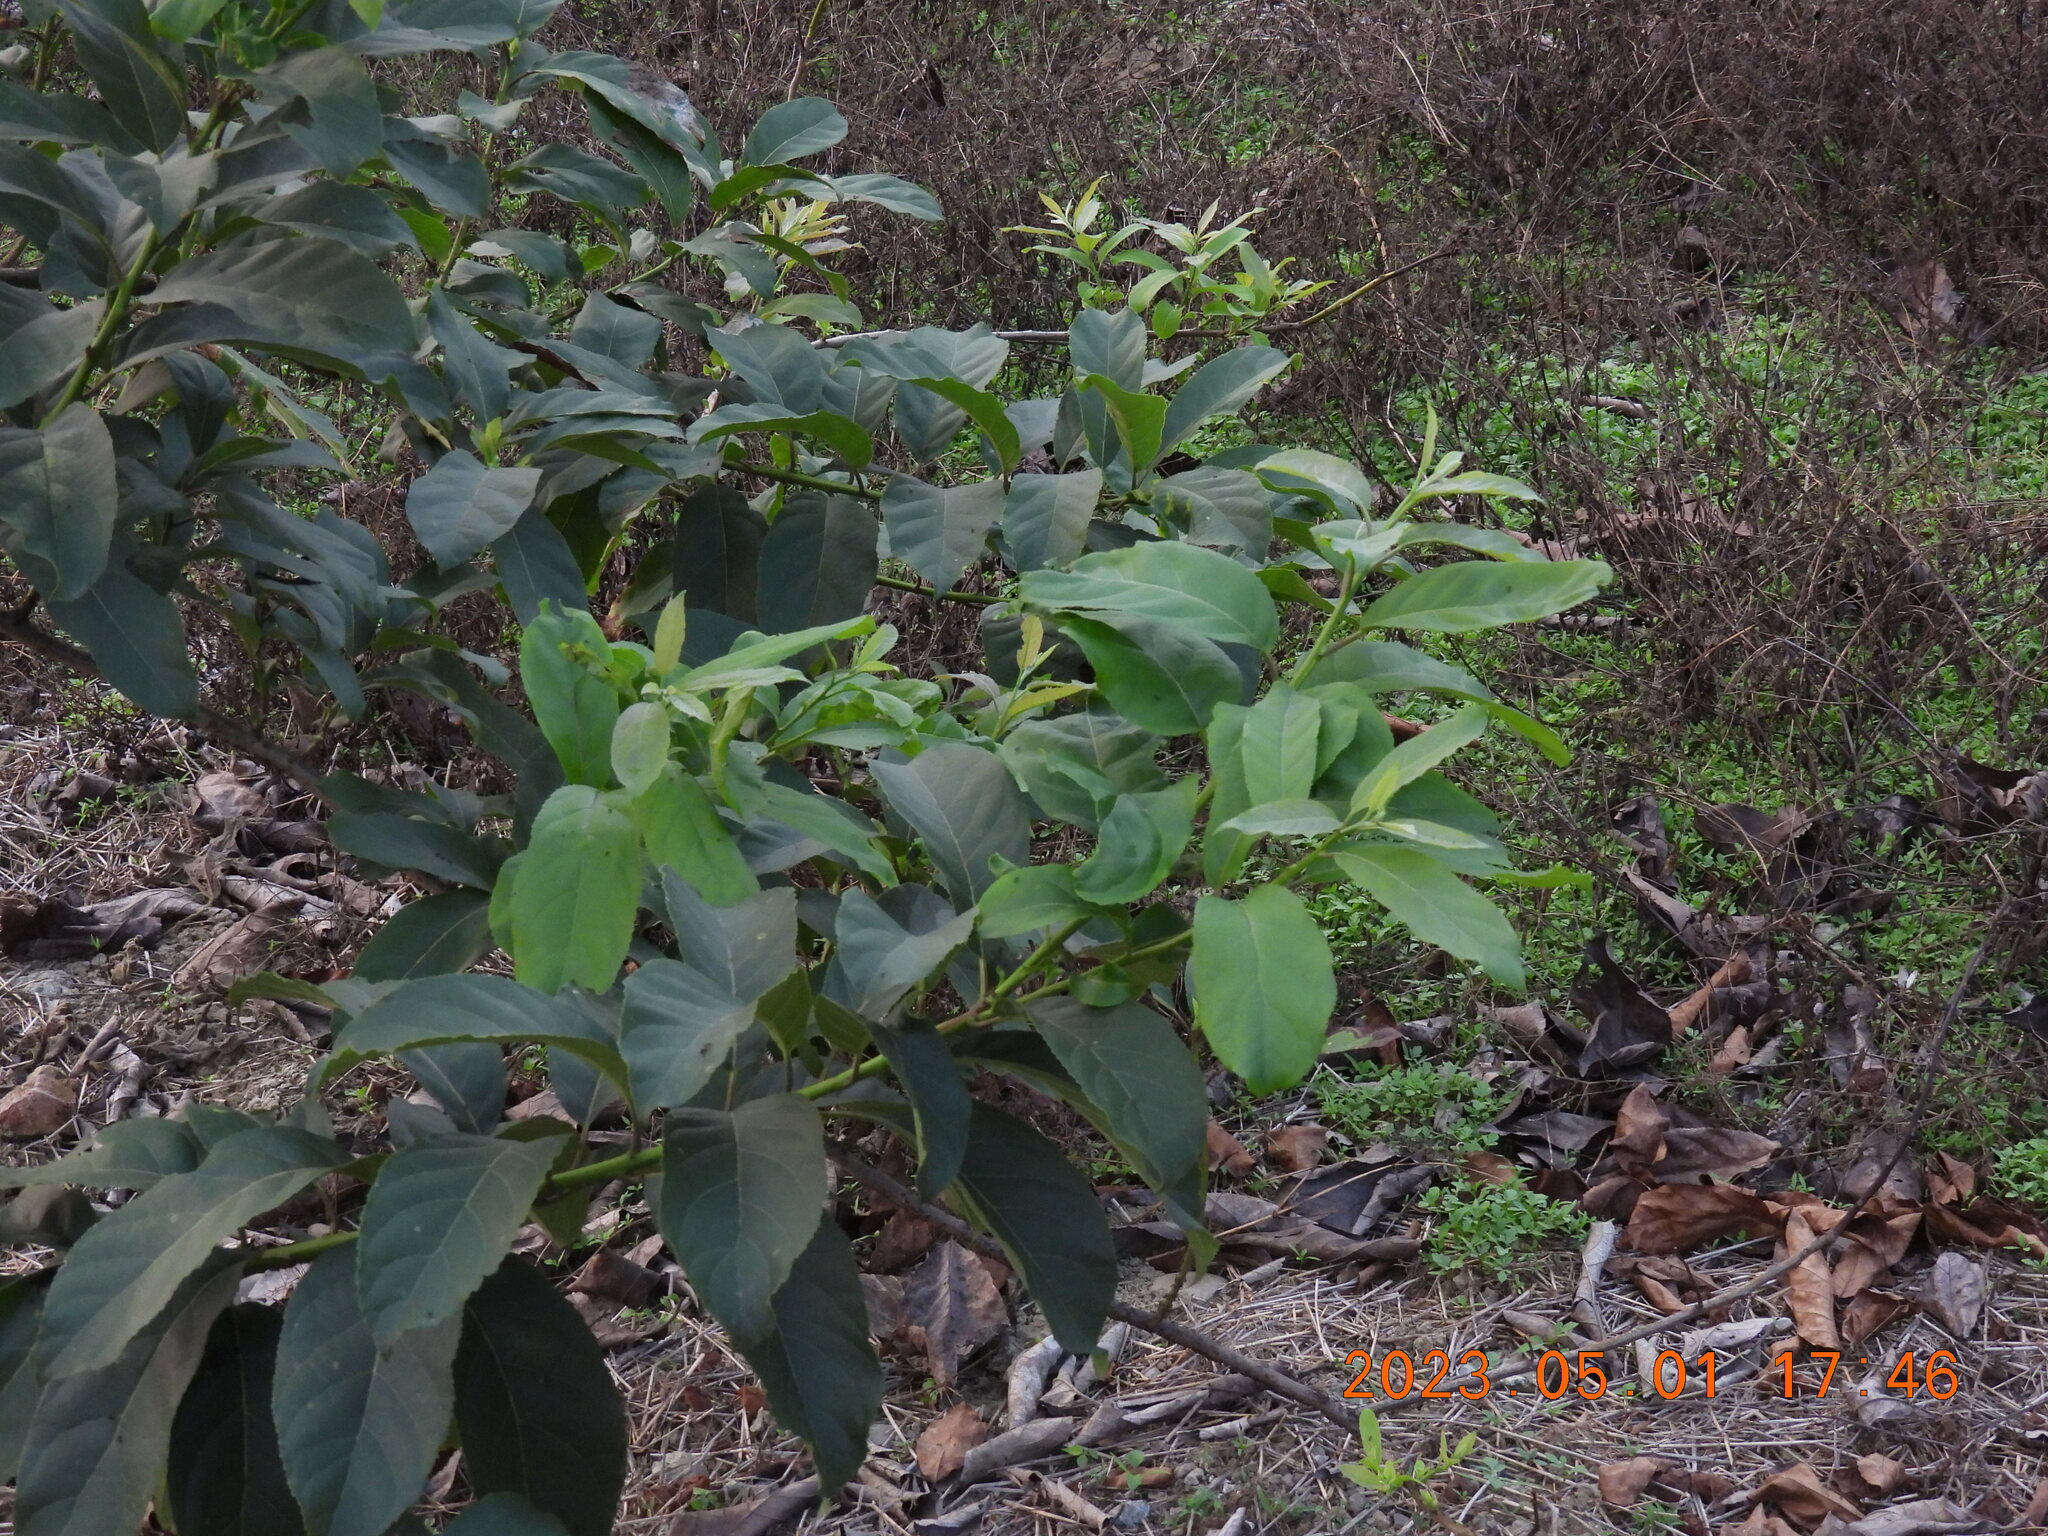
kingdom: Plantae
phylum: Tracheophyta
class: Magnoliopsida
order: Boraginales
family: Ehretiaceae
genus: Ehretia
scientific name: Ehretia acuminata
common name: Kodo wood
